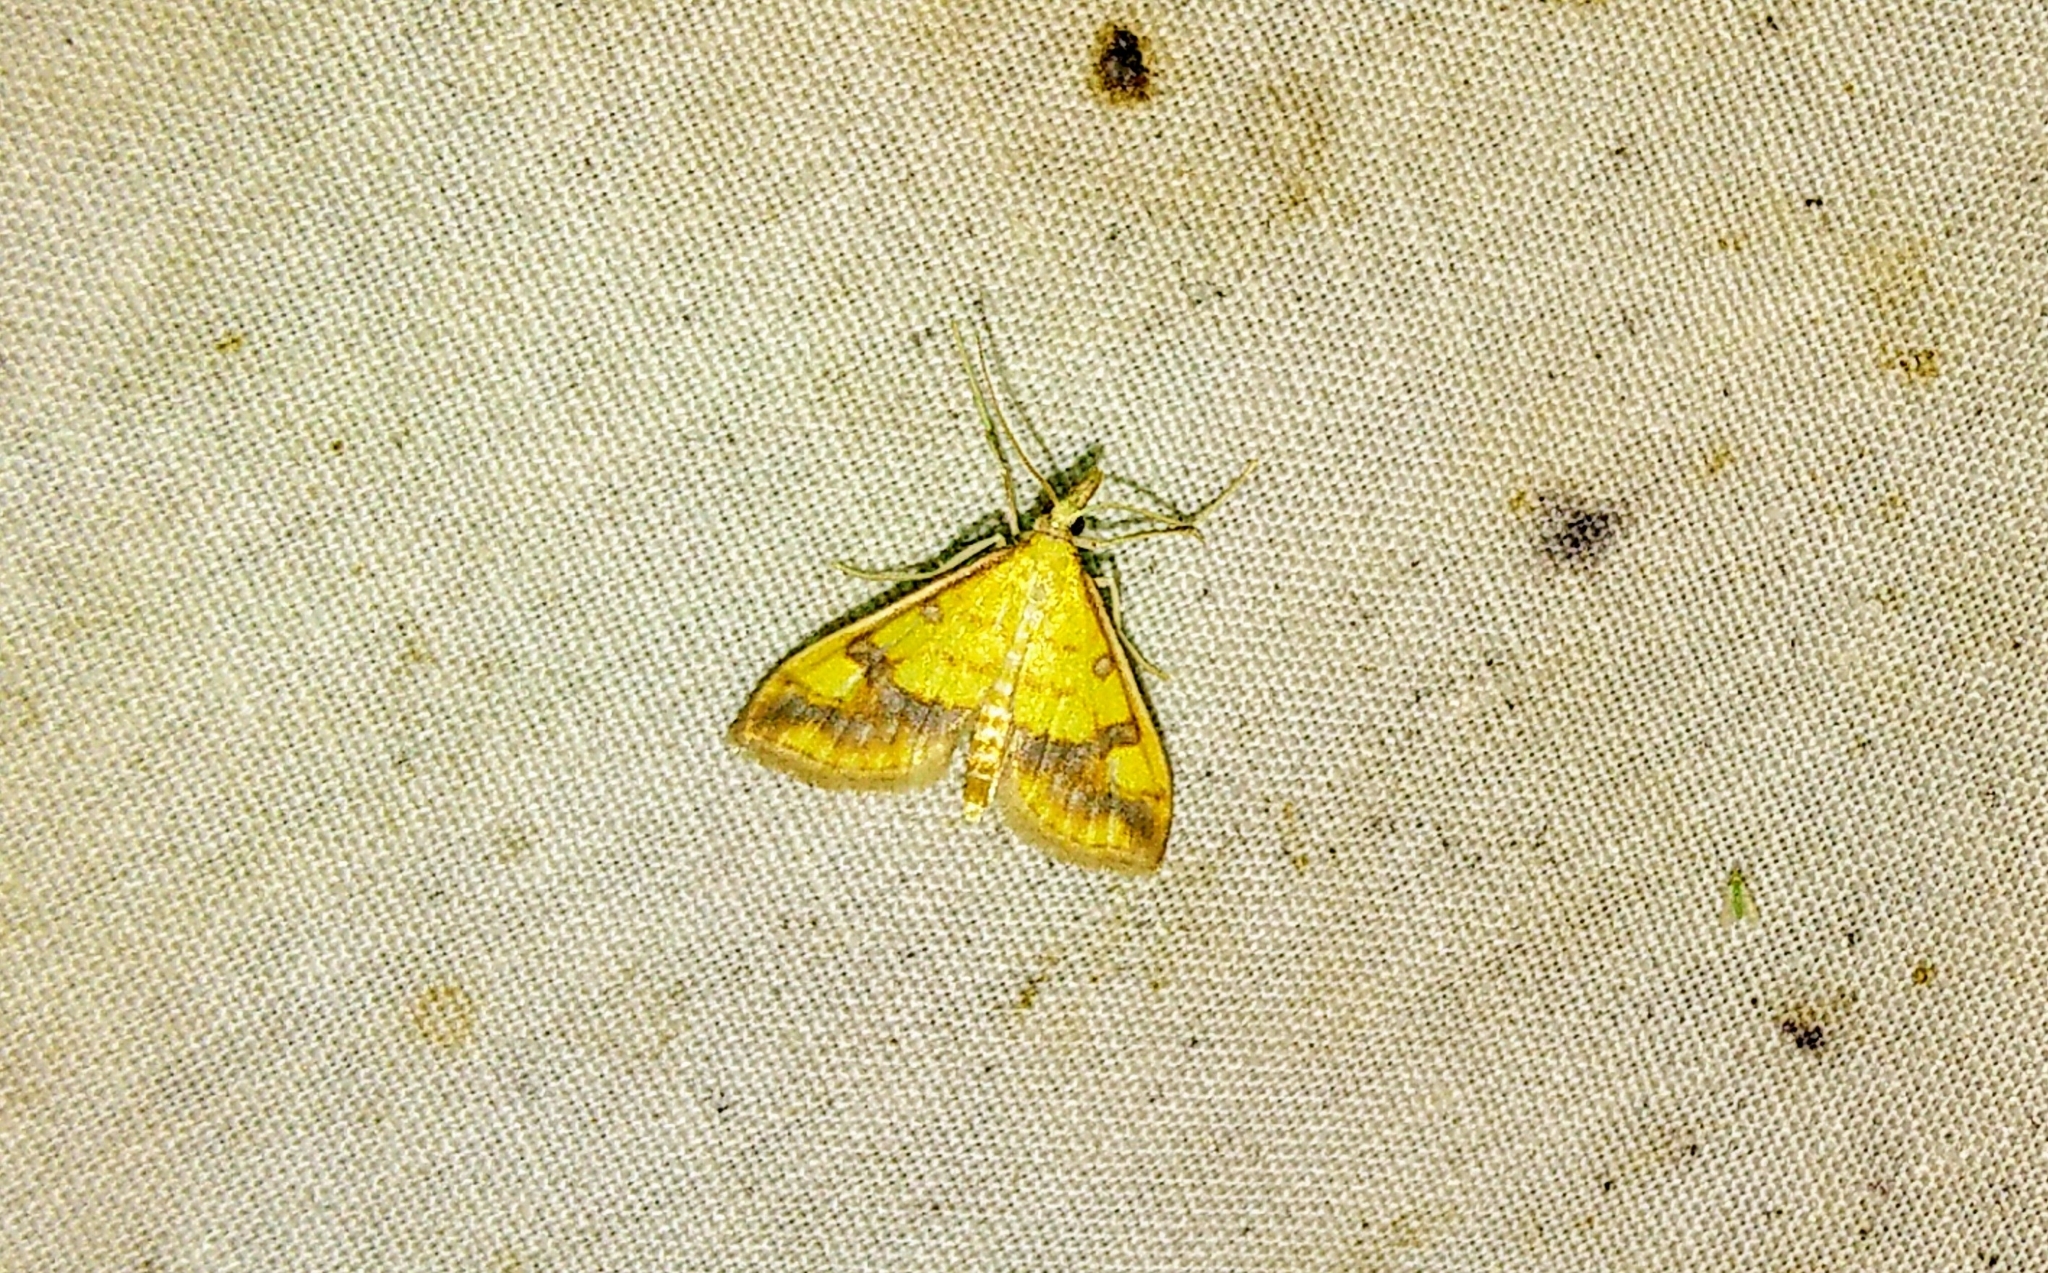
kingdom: Animalia
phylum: Arthropoda
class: Insecta
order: Lepidoptera
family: Crambidae
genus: Choristostigma
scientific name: Choristostigma plumbosignalis
